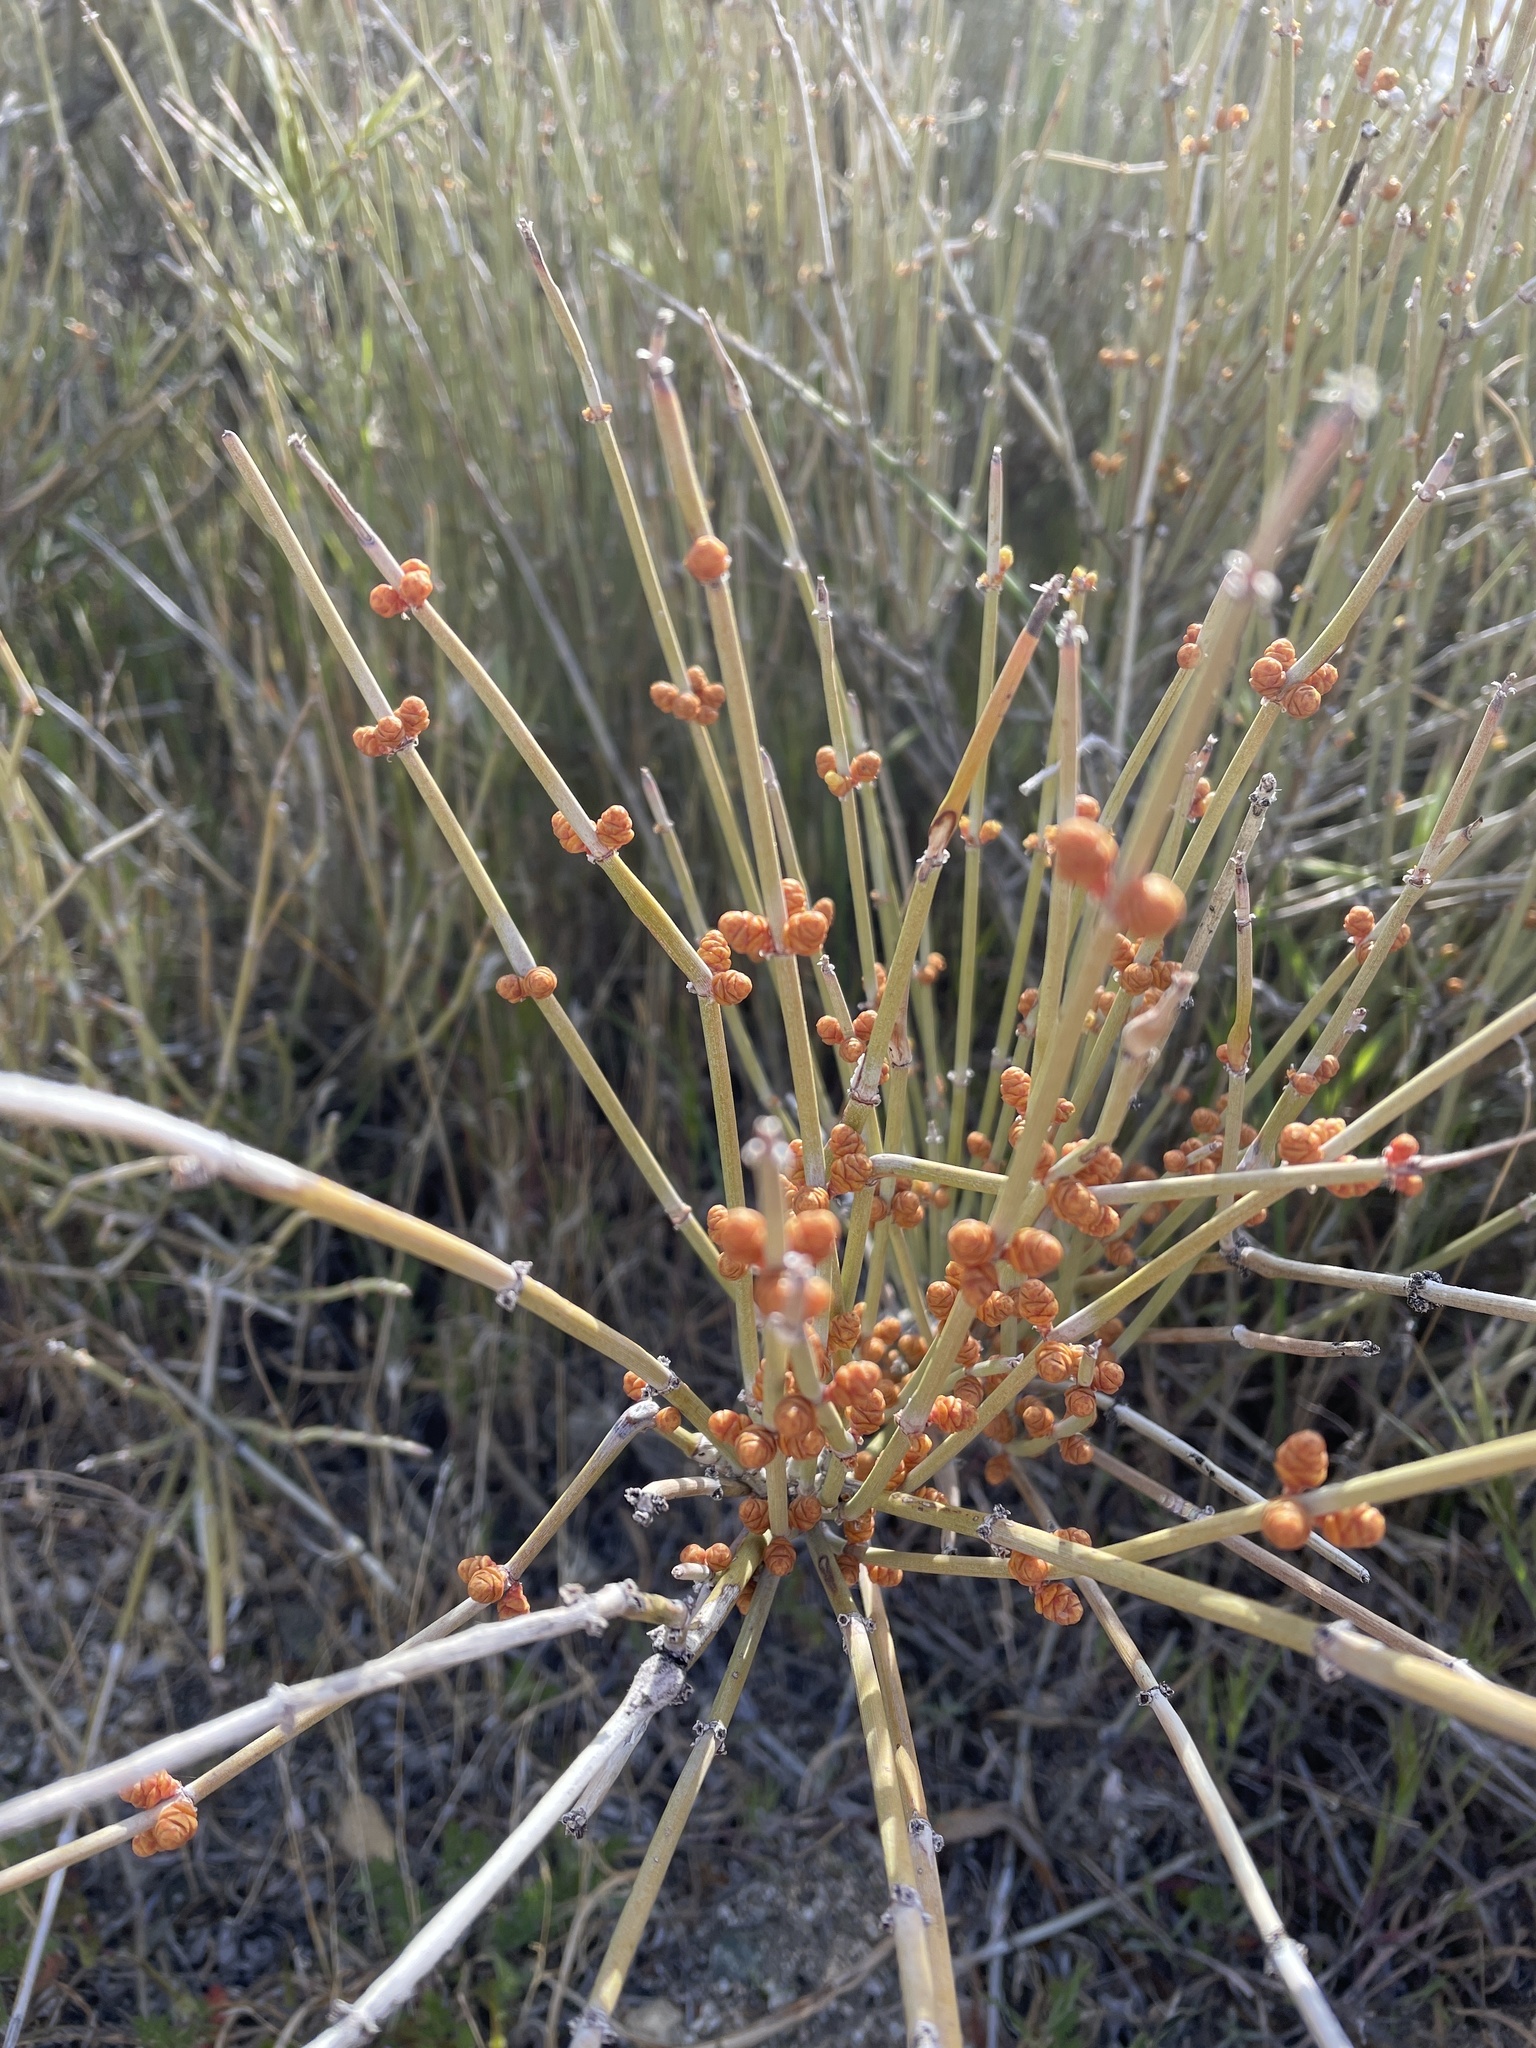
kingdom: Plantae
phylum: Tracheophyta
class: Gnetopsida
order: Ephedrales
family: Ephedraceae
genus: Ephedra
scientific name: Ephedra californica
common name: California ephedra
